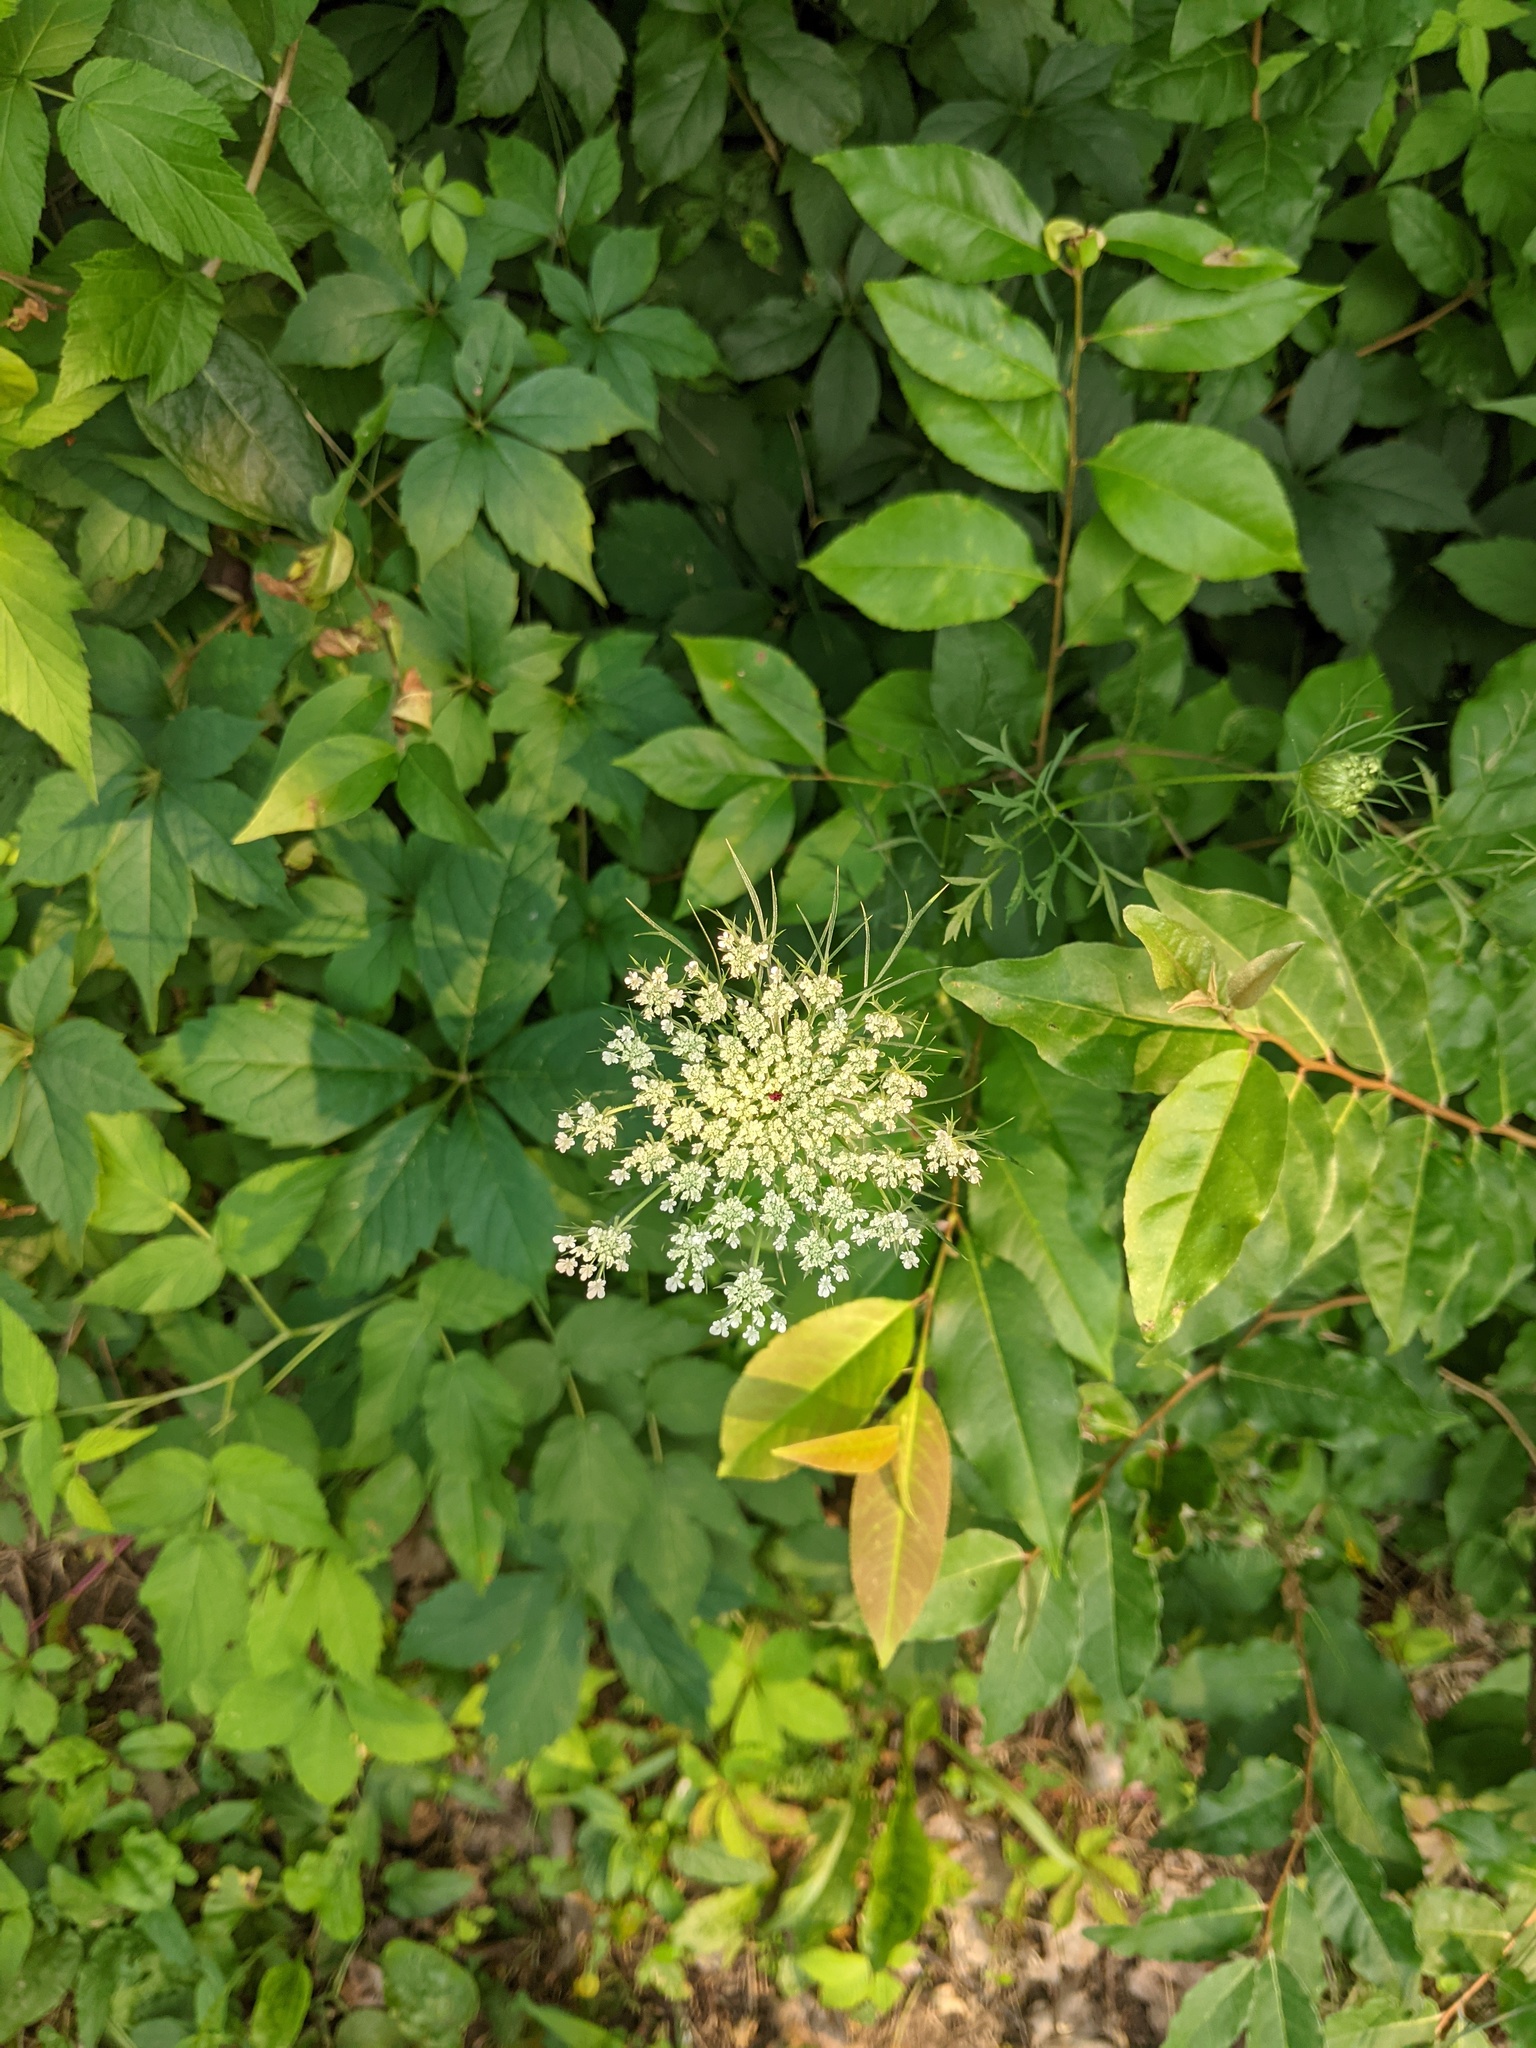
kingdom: Plantae
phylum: Tracheophyta
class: Magnoliopsida
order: Apiales
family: Apiaceae
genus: Daucus
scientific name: Daucus carota
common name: Wild carrot
